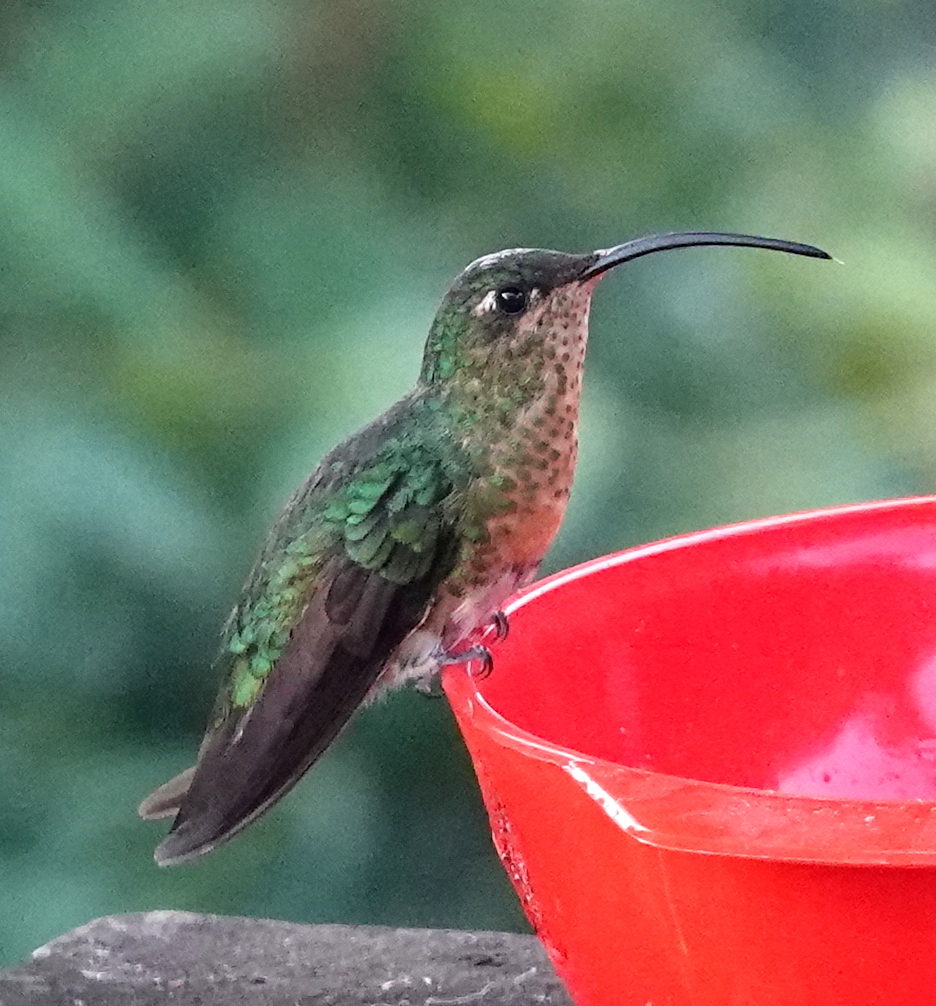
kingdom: Animalia
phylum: Chordata
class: Aves
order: Apodiformes
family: Trochilidae
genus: Lafresnaya
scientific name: Lafresnaya lafresnayi
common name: Mountain velvetbreast
